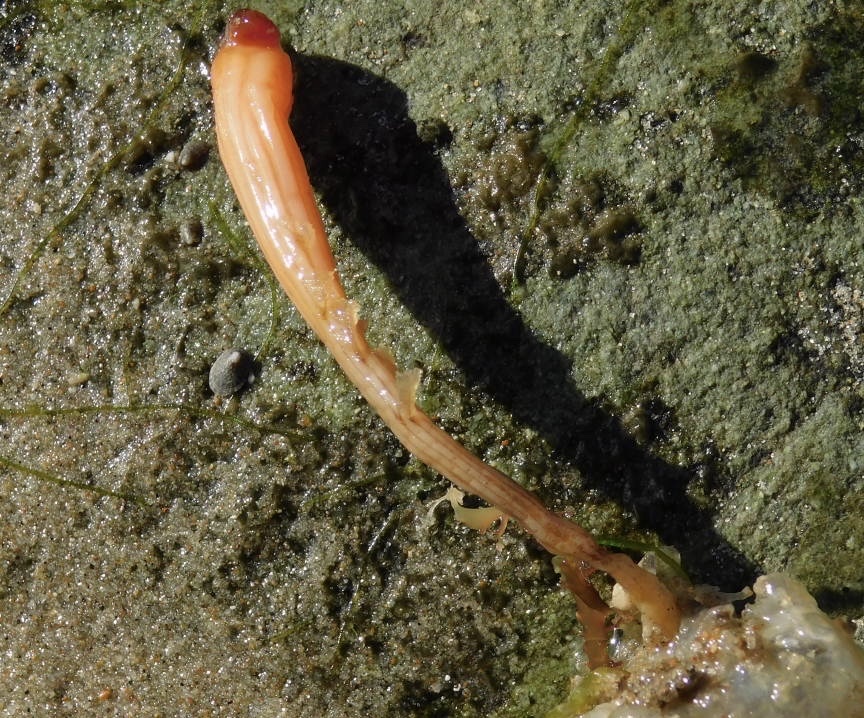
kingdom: Animalia
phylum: Chordata
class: Ascidiacea
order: Stolidobranchia
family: Styelidae
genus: Styela
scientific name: Styela montereyensis
